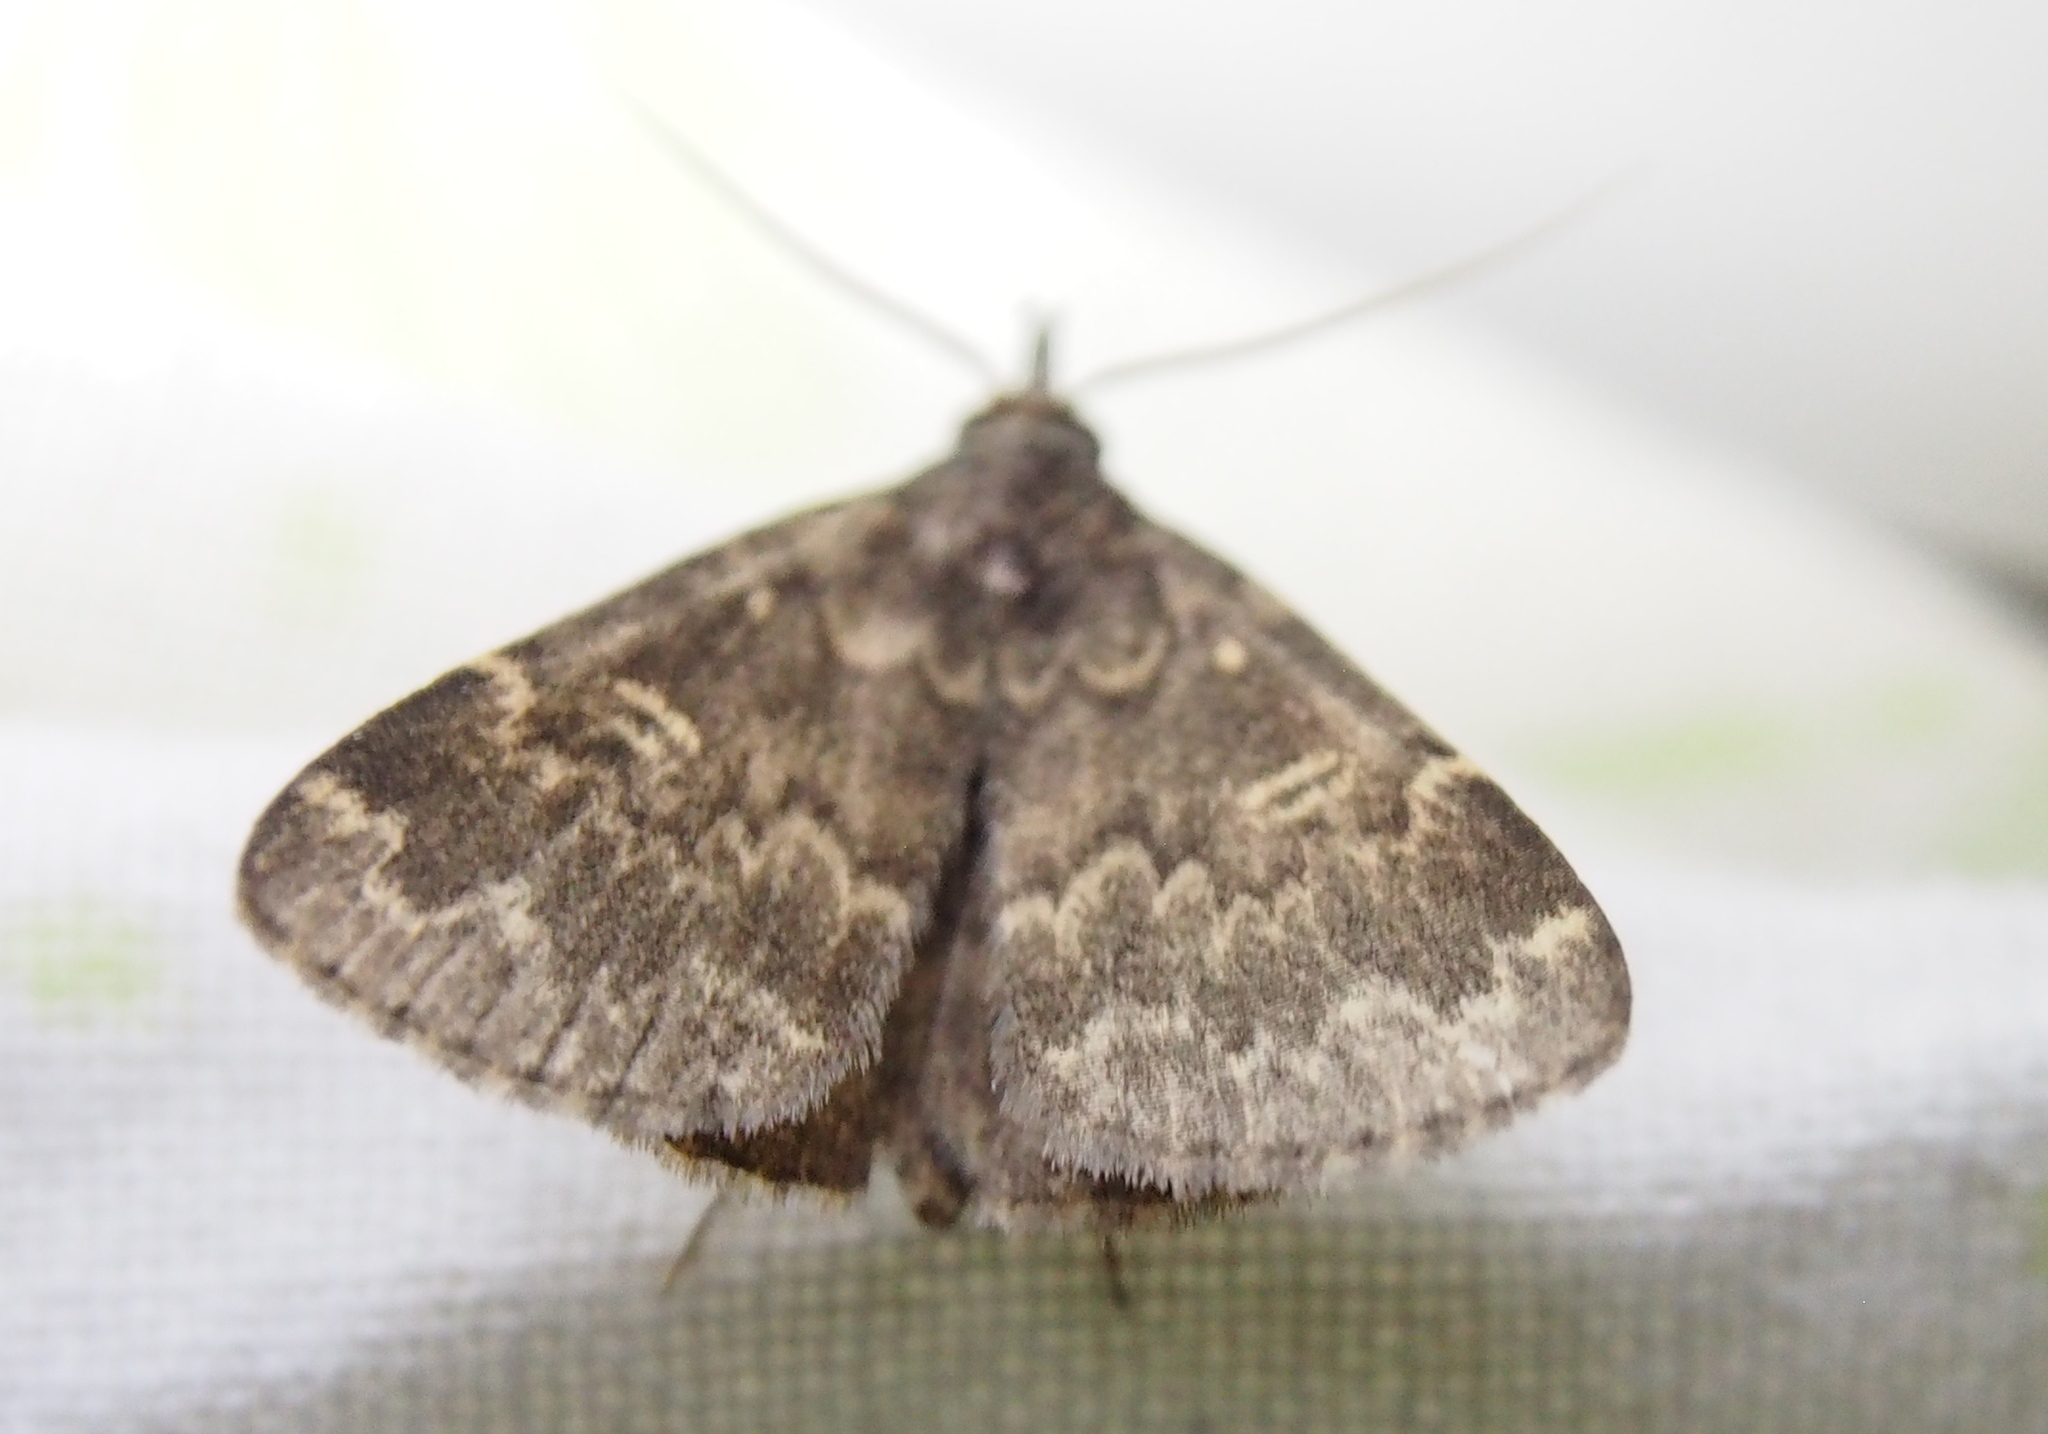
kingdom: Animalia
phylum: Arthropoda
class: Insecta
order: Lepidoptera
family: Erebidae
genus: Idia
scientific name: Idia lubricalis
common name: Twin-striped tabby
